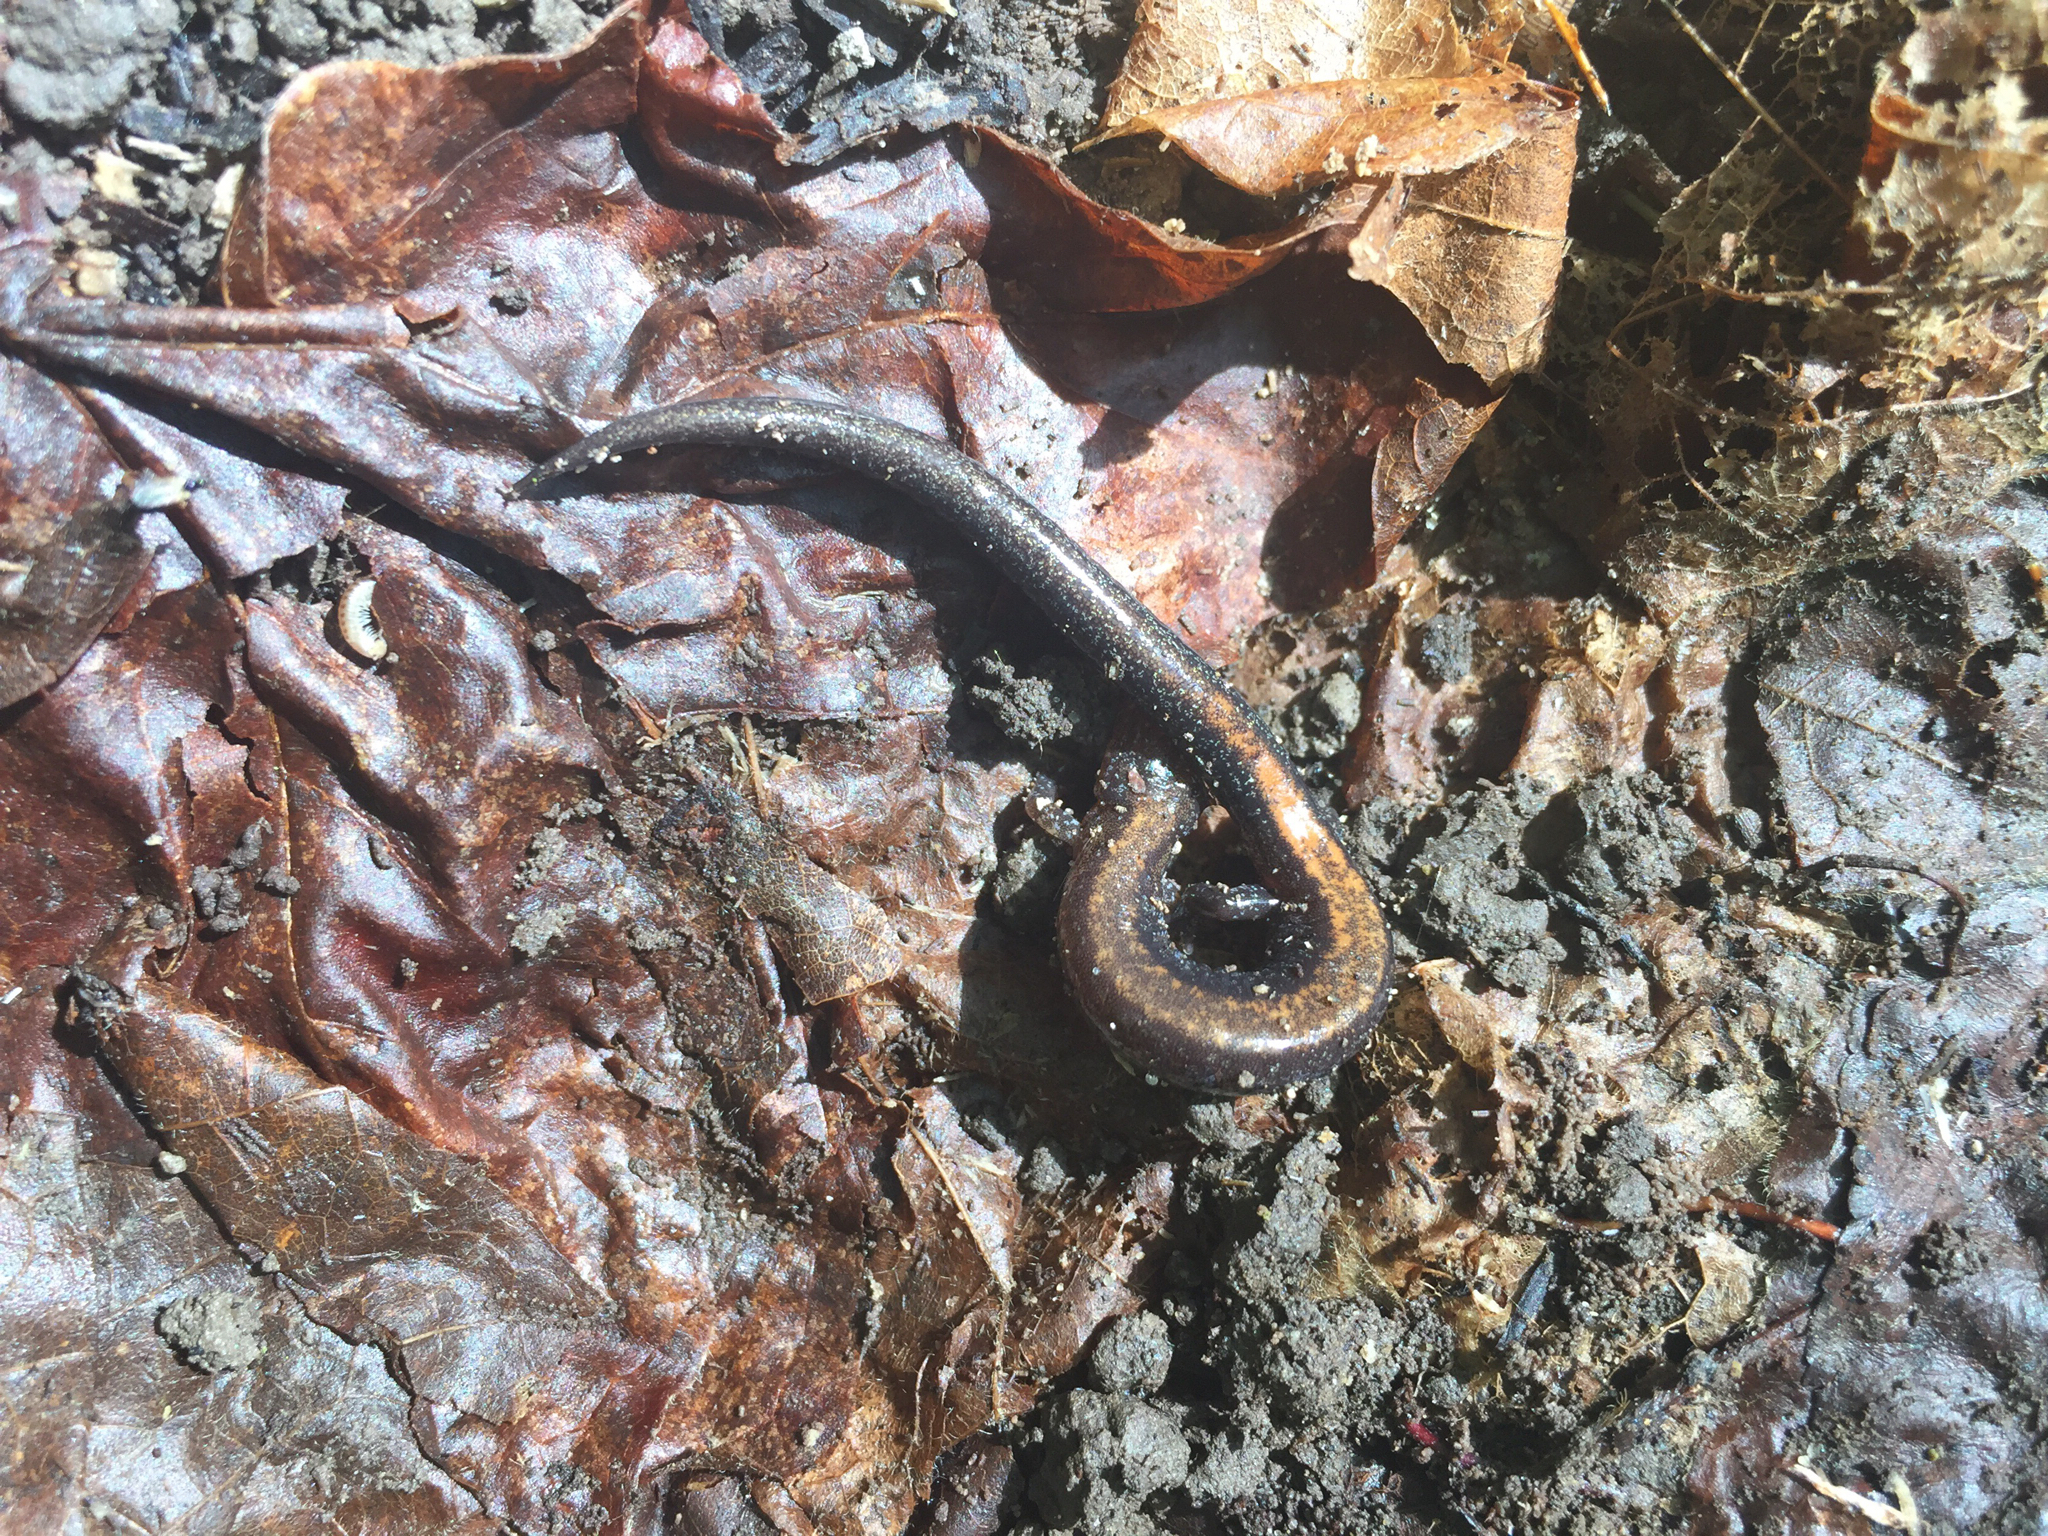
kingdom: Animalia
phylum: Chordata
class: Amphibia
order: Caudata
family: Plethodontidae
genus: Plethodon
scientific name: Plethodon cinereus
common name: Redback salamander
